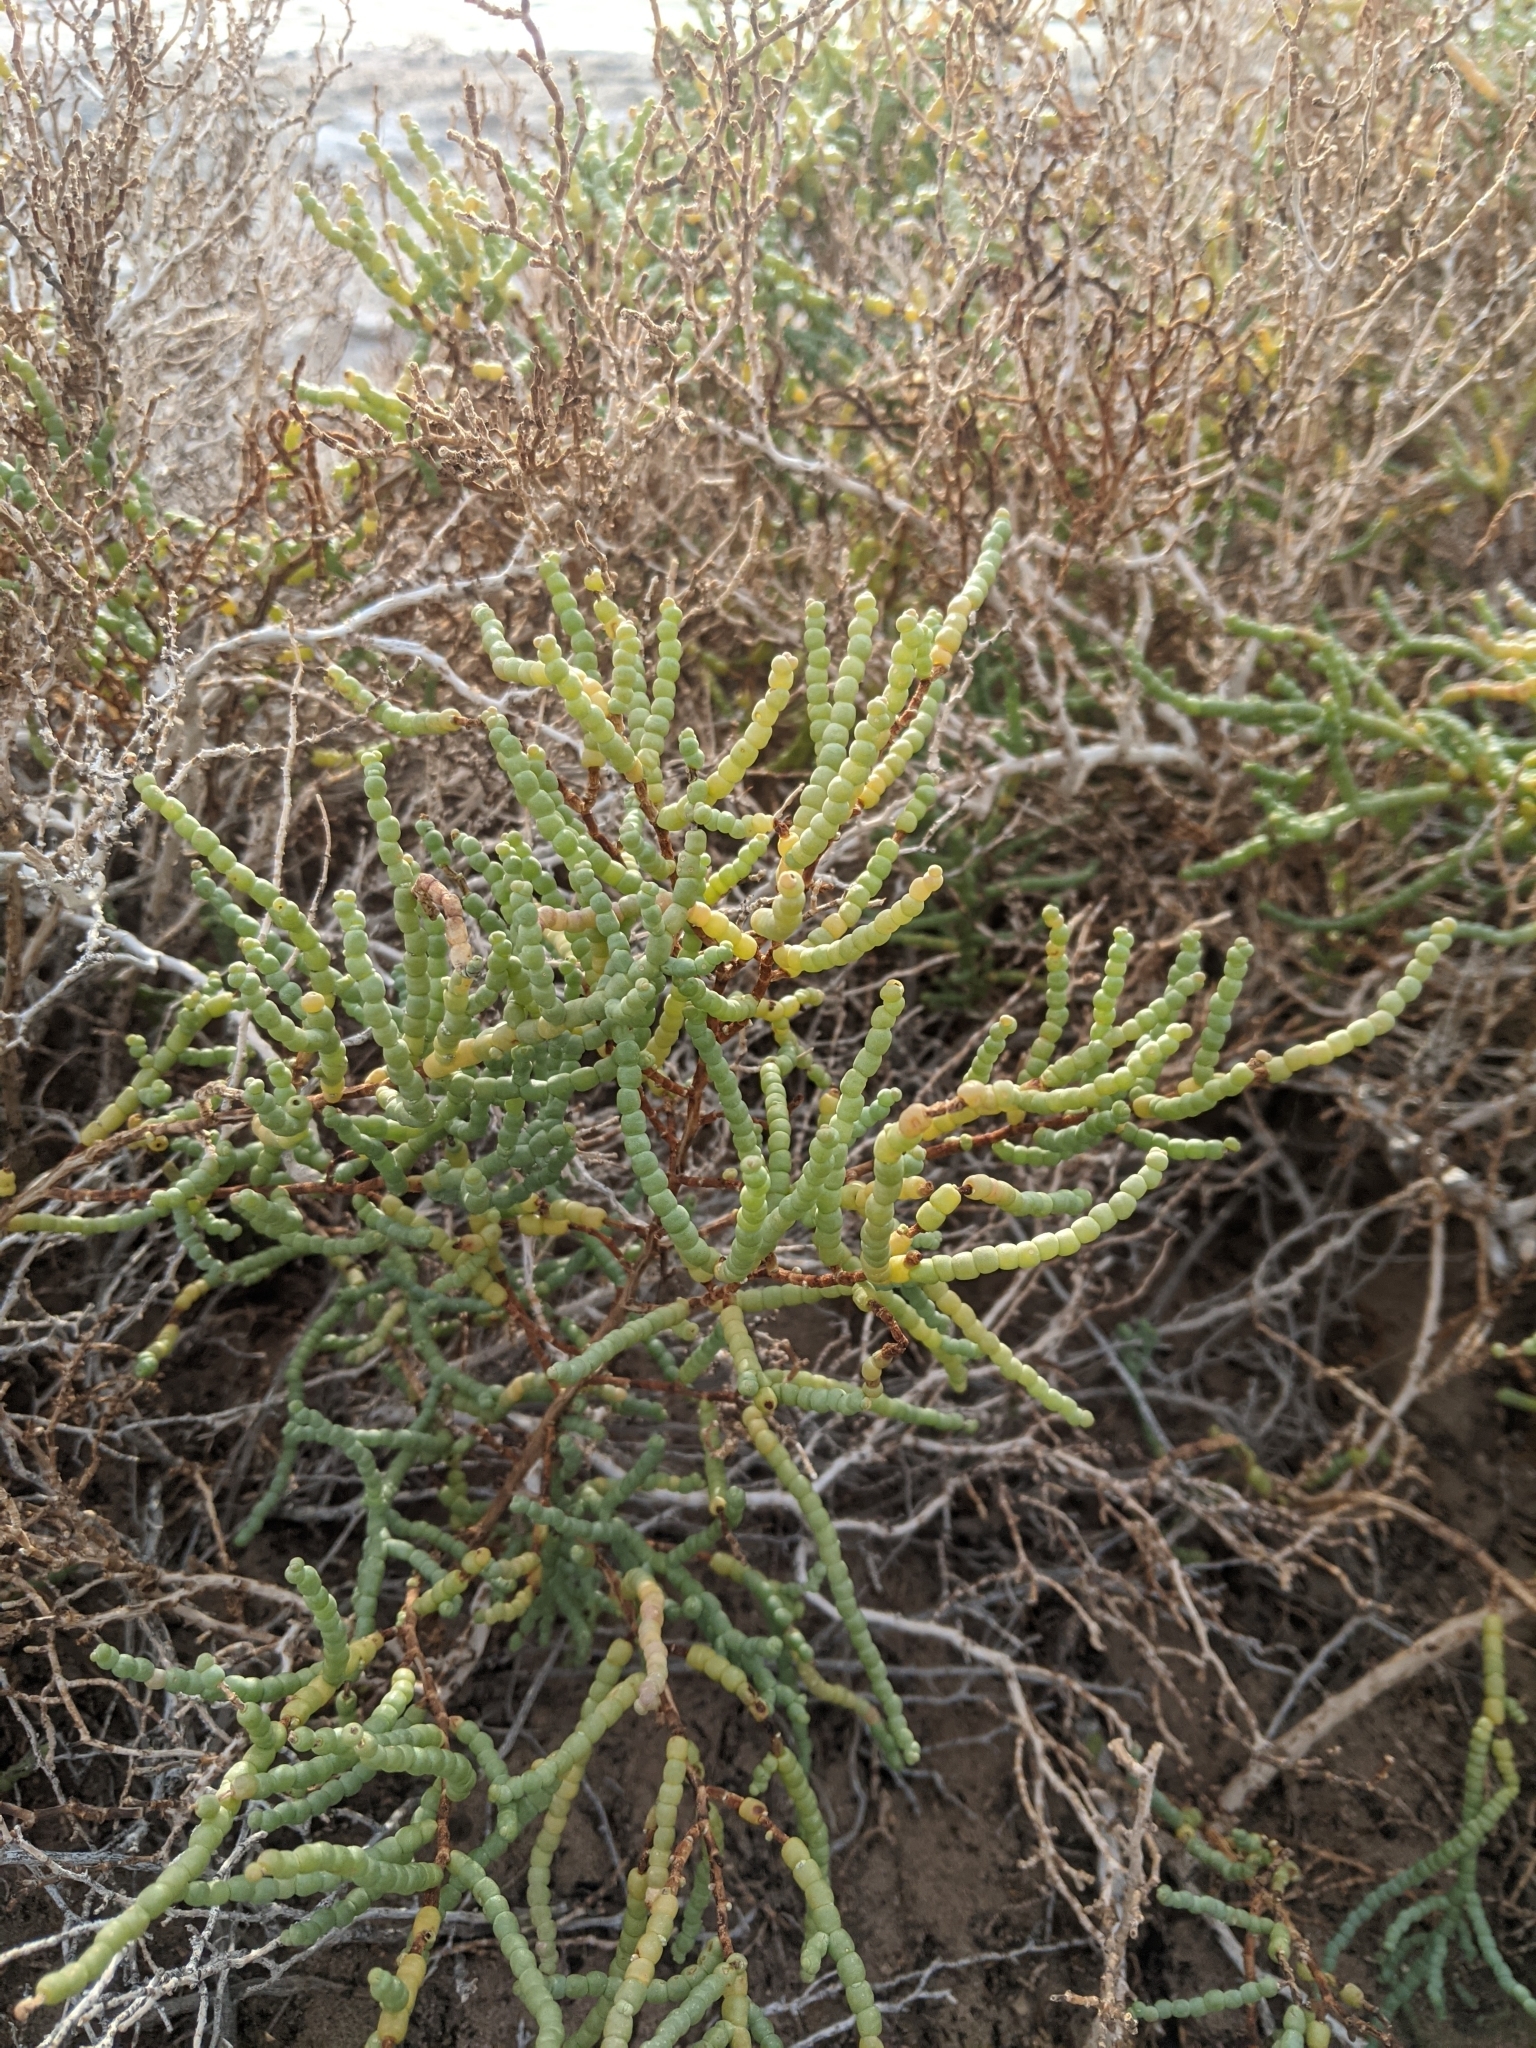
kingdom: Plantae
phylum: Tracheophyta
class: Magnoliopsida
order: Caryophyllales
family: Amaranthaceae
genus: Allenrolfea
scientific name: Allenrolfea occidentalis
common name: Iodine-bush
